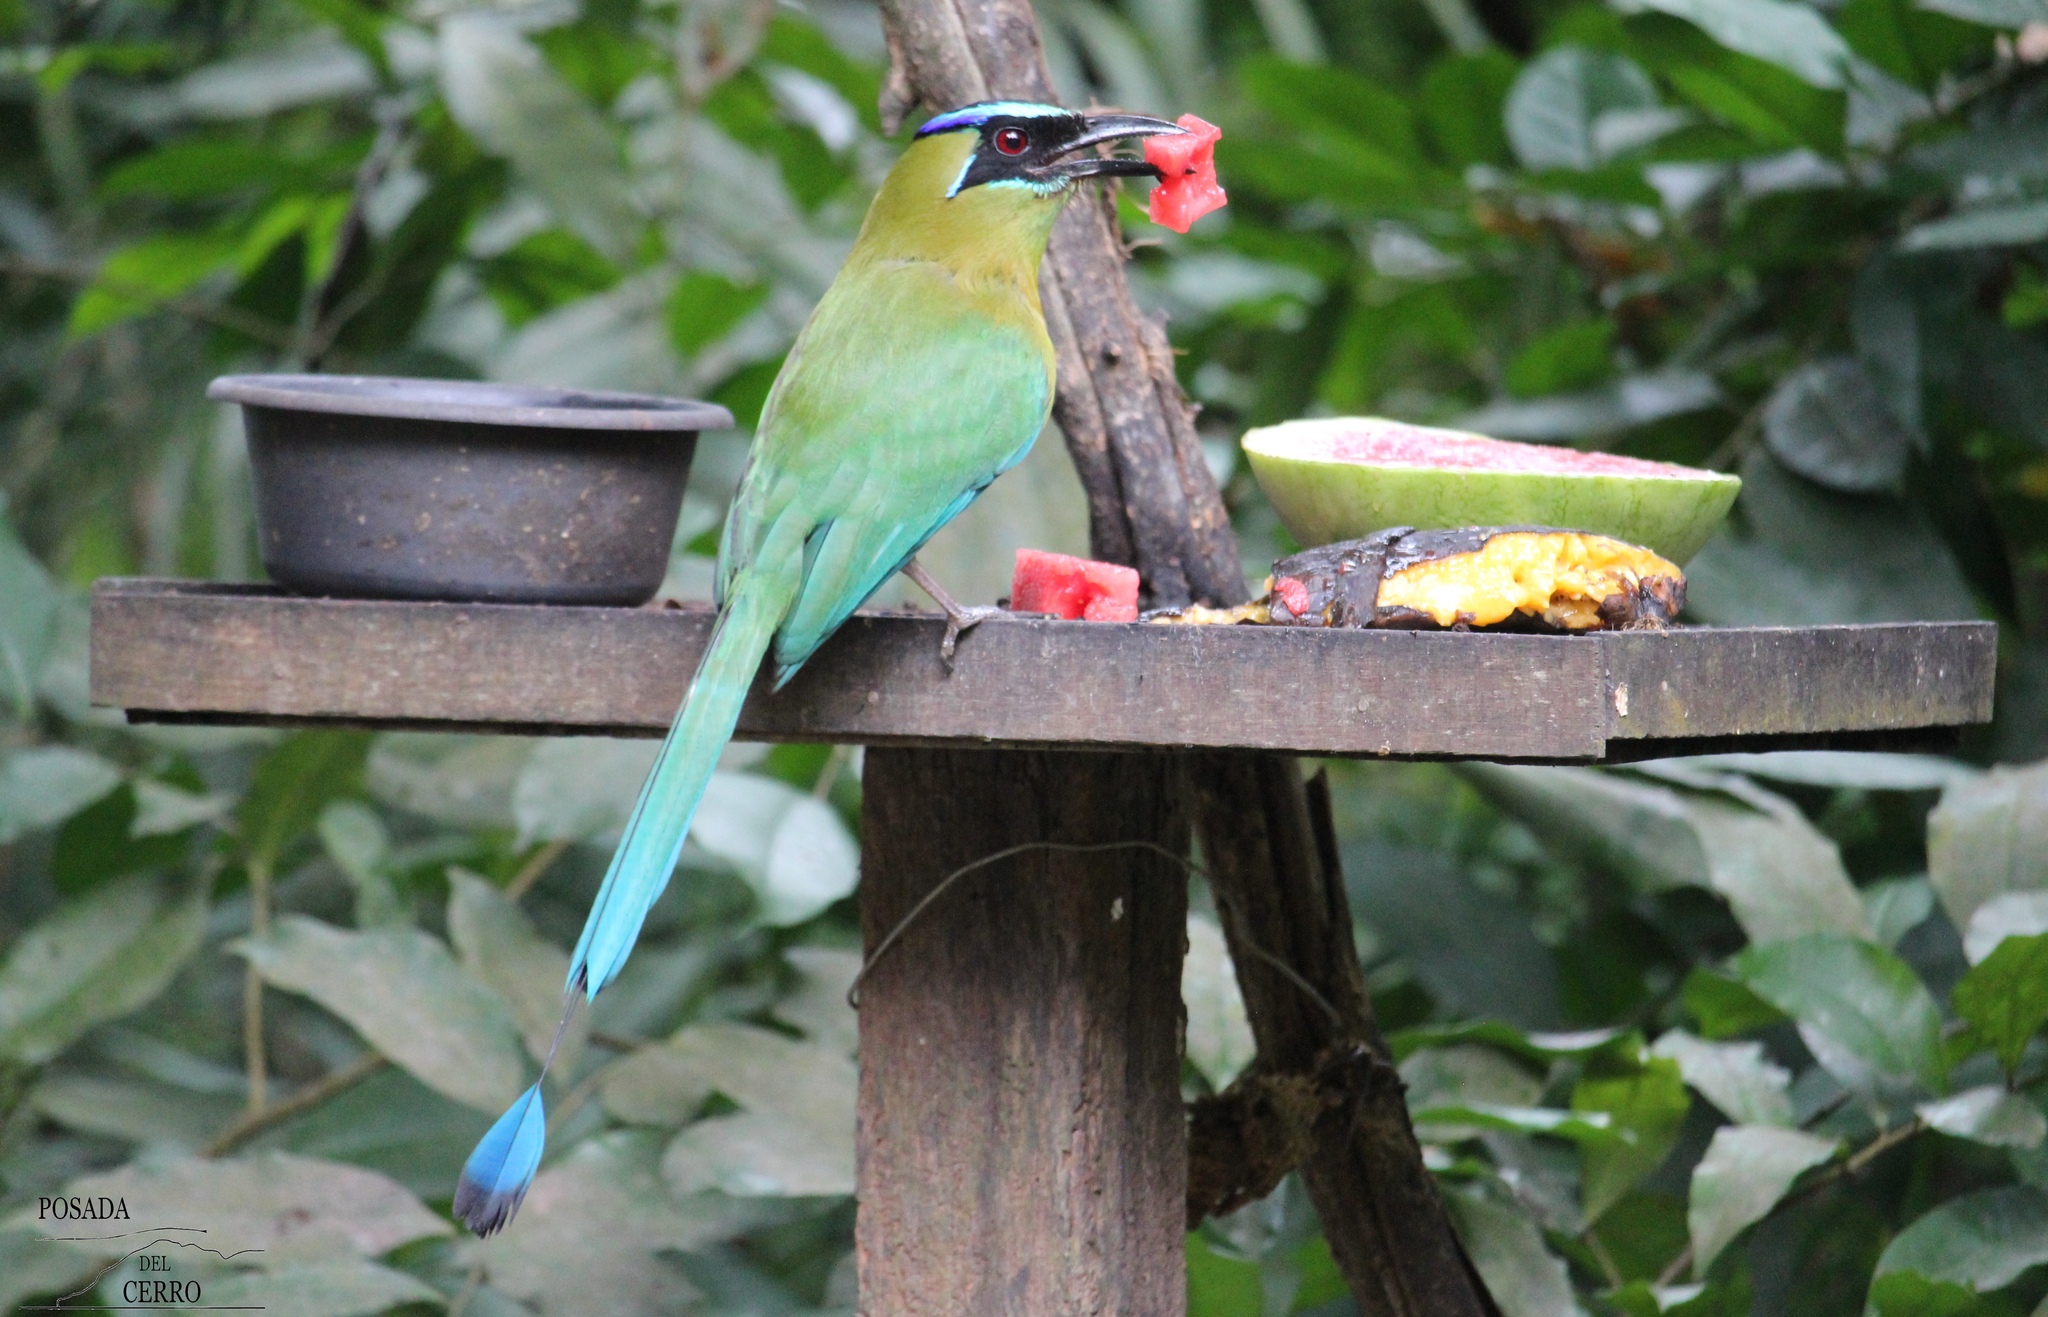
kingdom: Animalia
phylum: Chordata
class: Aves
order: Coraciiformes
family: Momotidae
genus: Momotus
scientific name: Momotus lessonii
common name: Lesson's motmot
